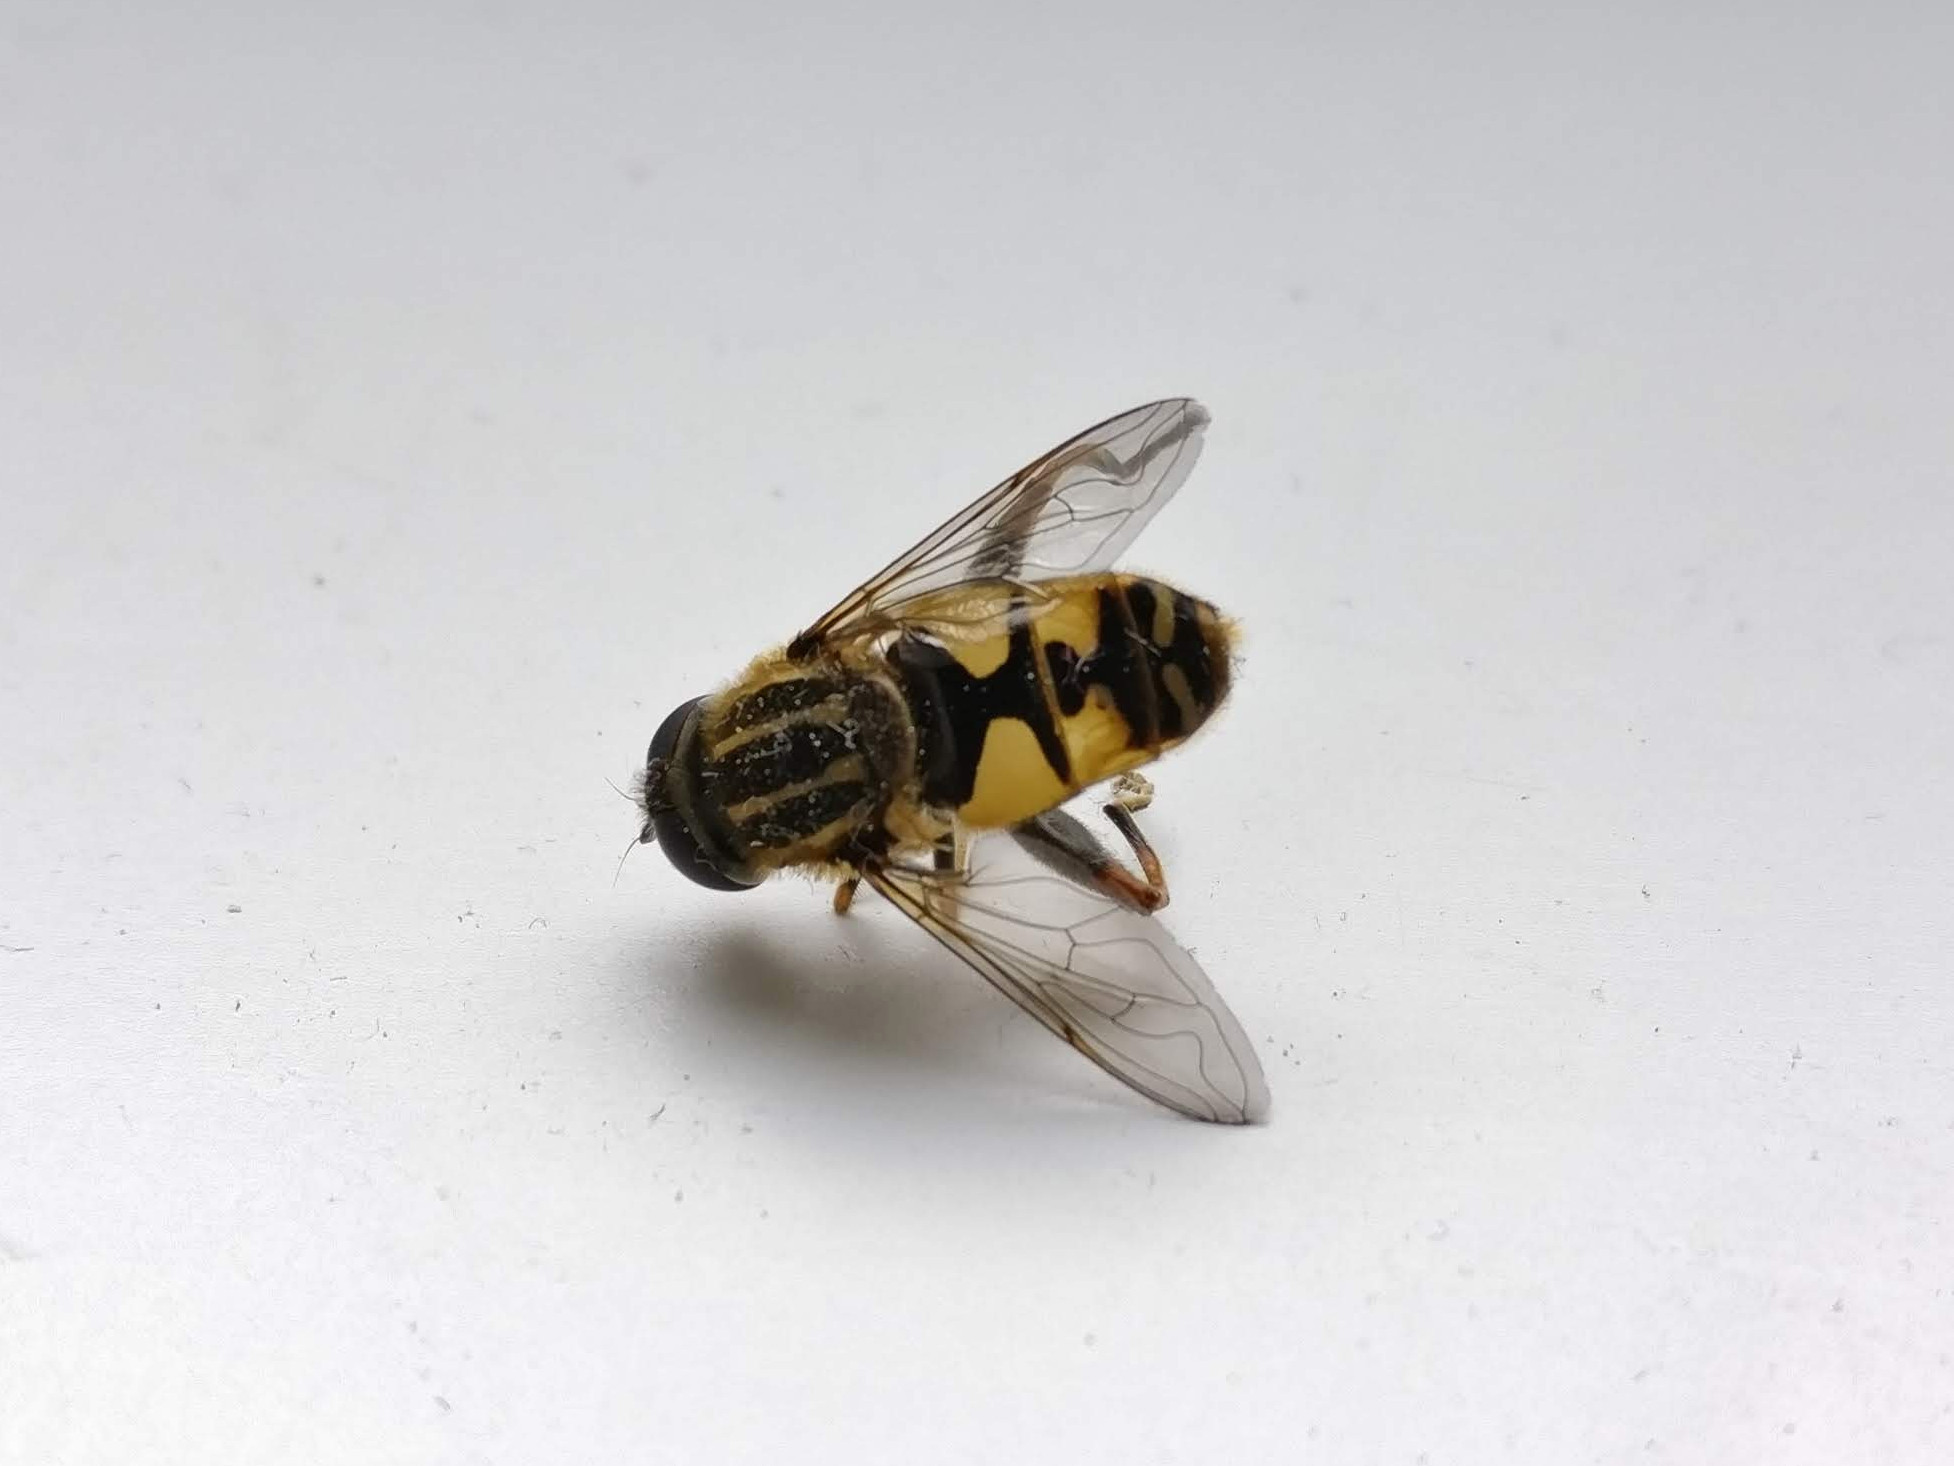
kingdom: Animalia
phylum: Arthropoda
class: Insecta
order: Diptera
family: Syrphidae
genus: Helophilus
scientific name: Helophilus pendulus
